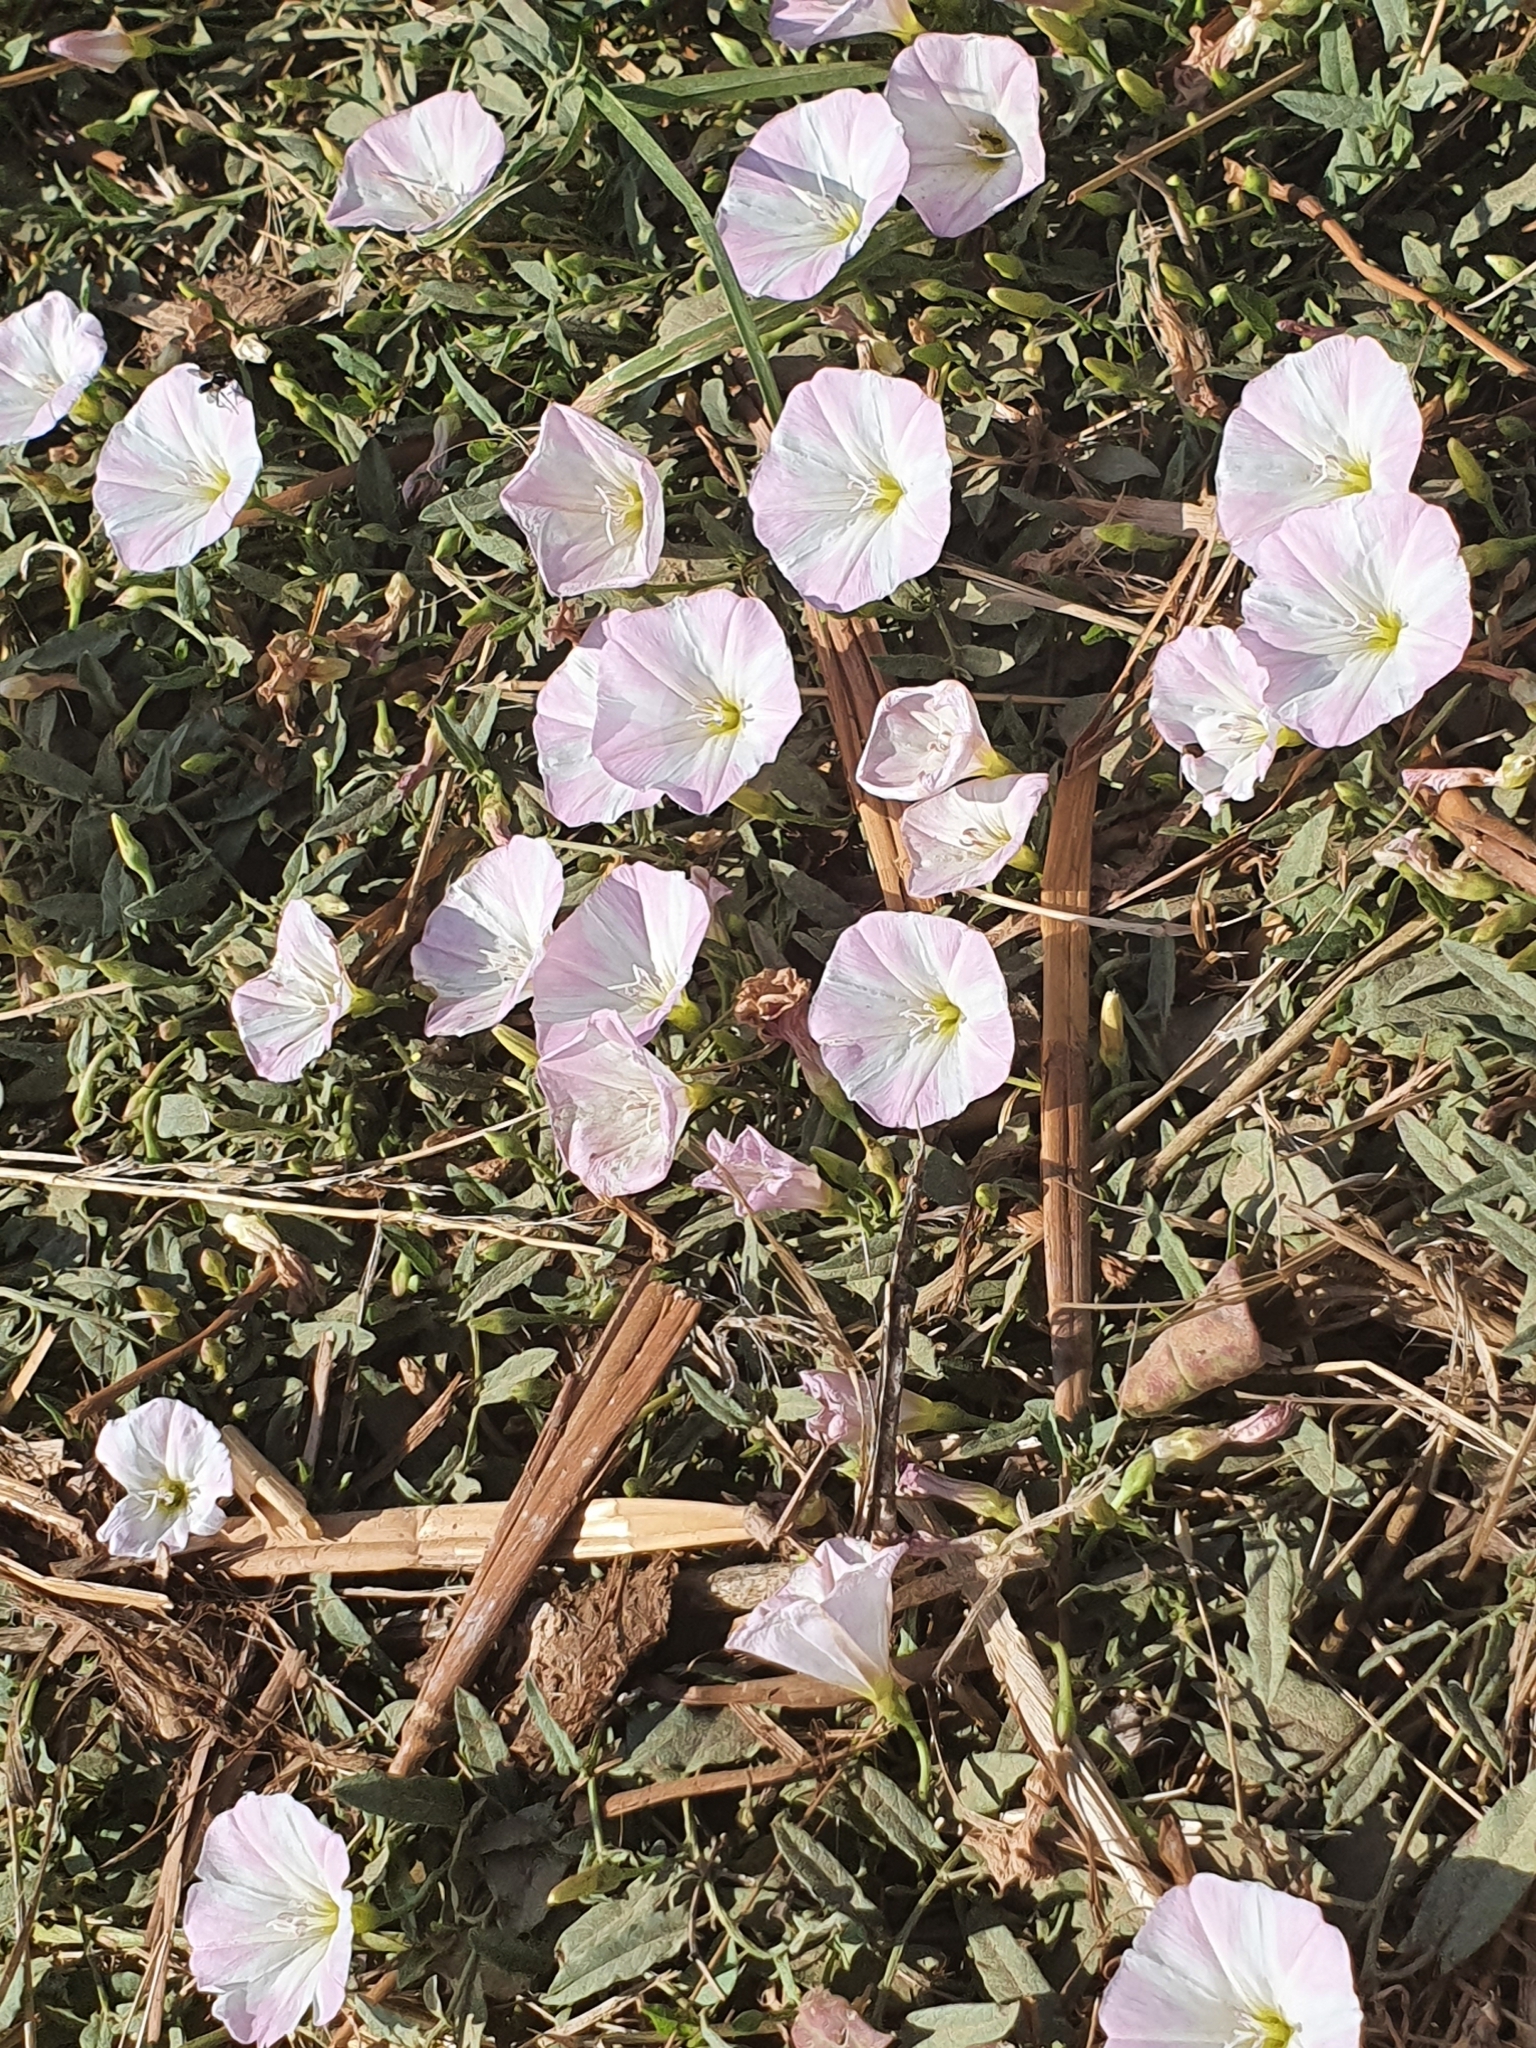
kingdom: Plantae
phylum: Tracheophyta
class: Magnoliopsida
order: Solanales
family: Convolvulaceae
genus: Convolvulus
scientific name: Convolvulus arvensis
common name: Field bindweed
